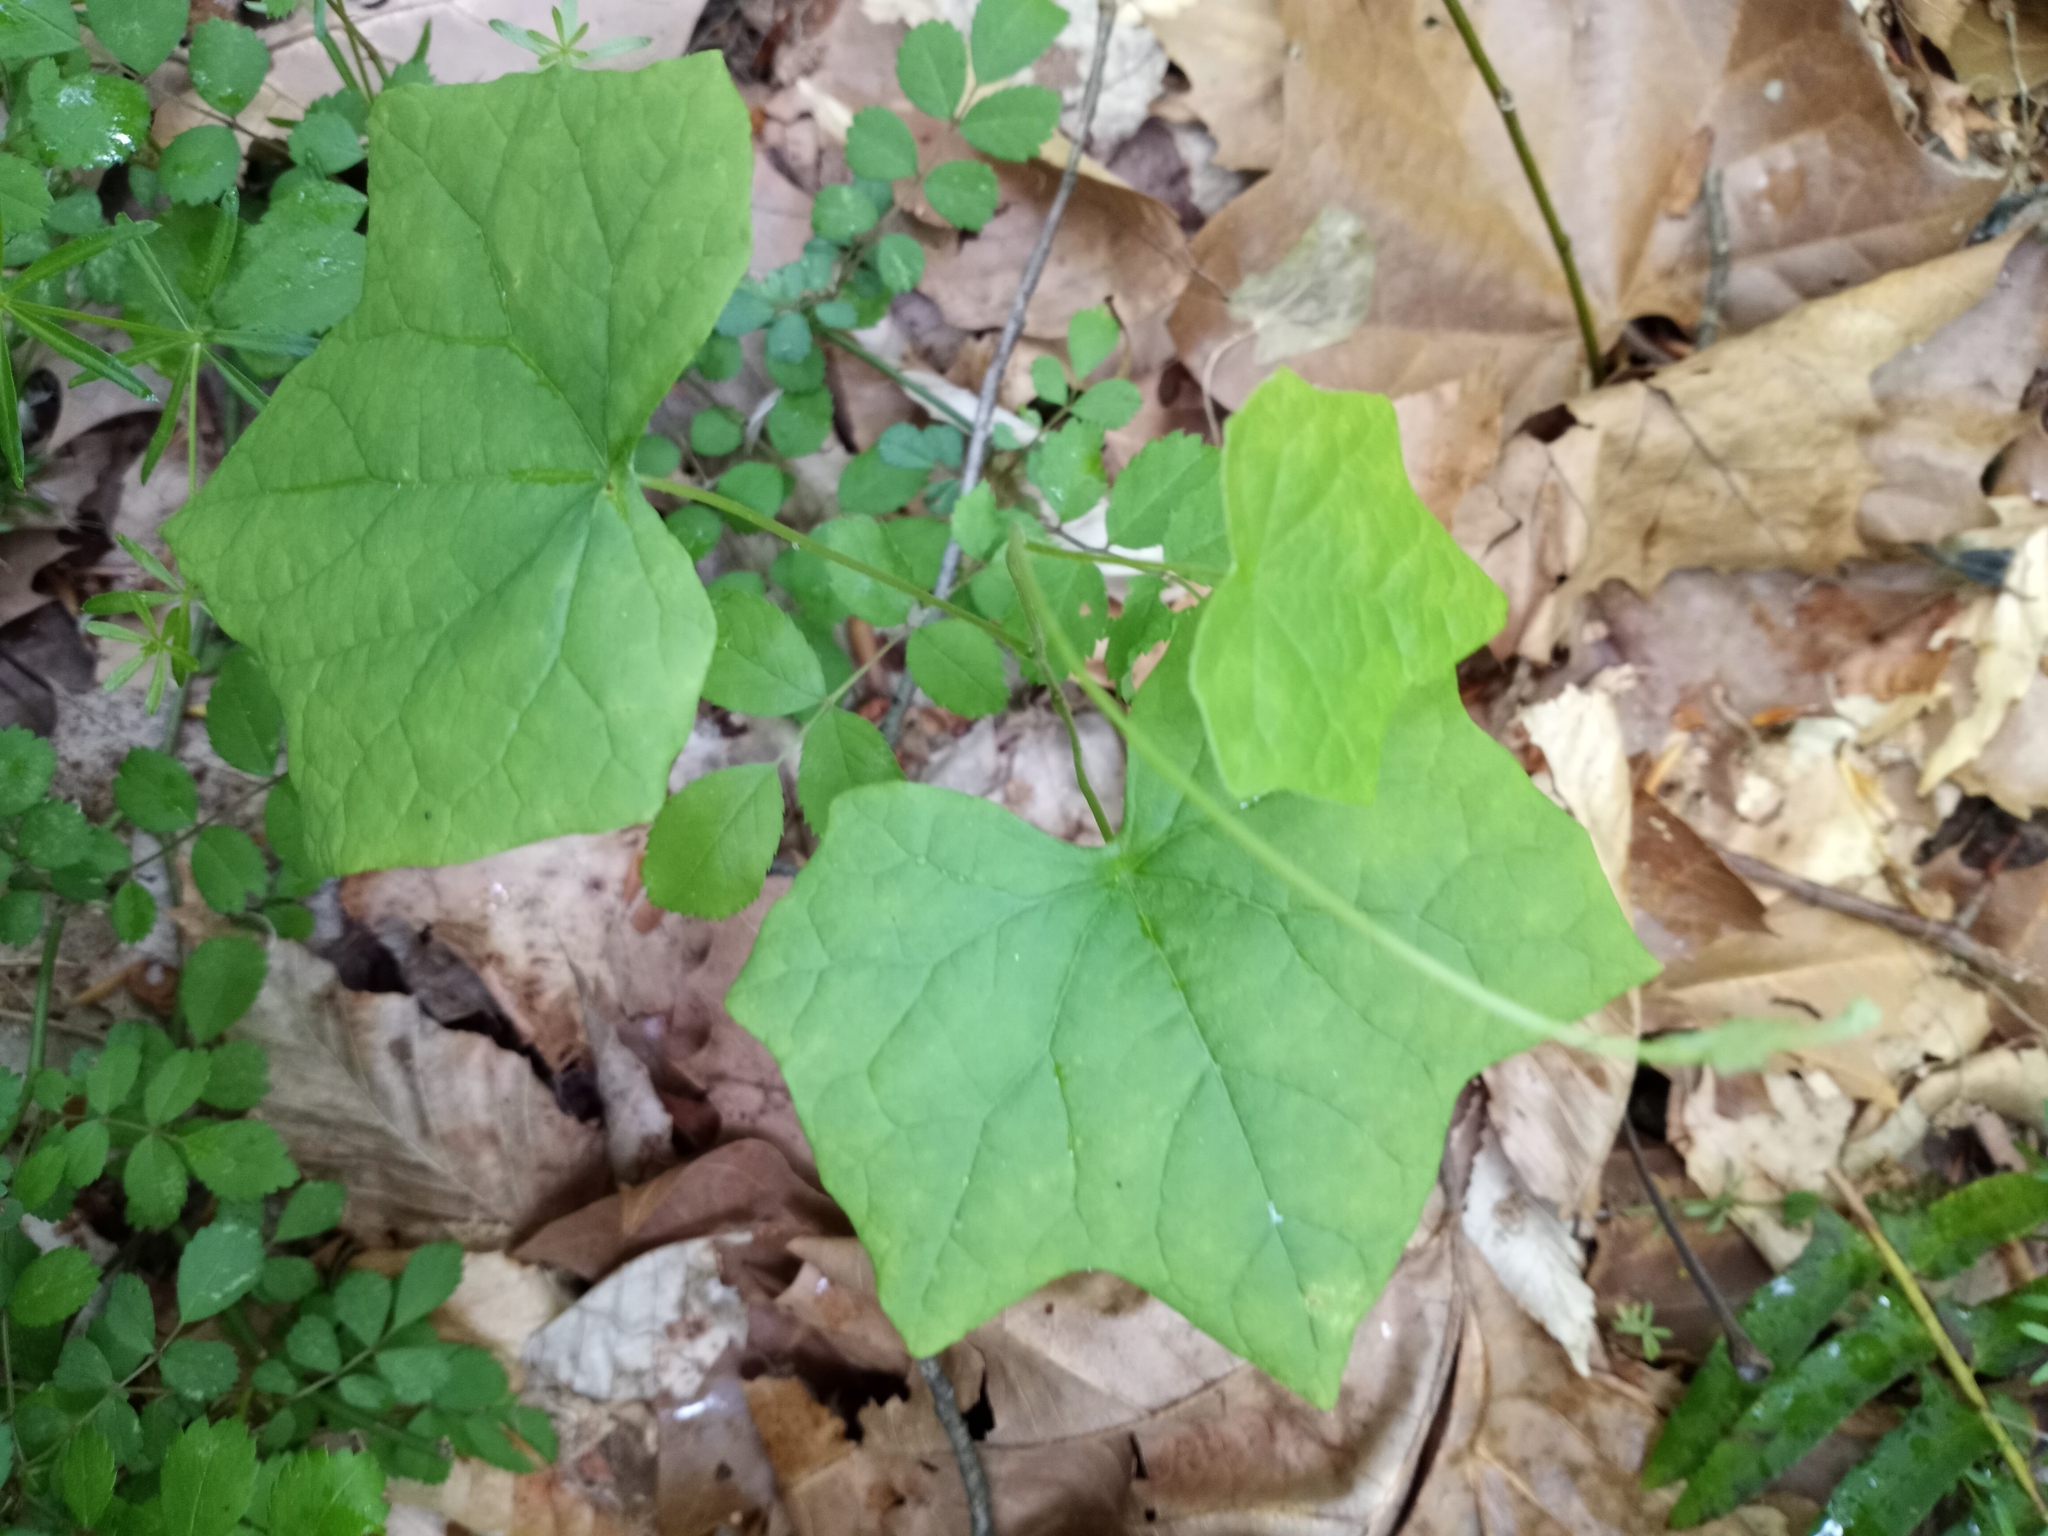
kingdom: Plantae
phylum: Tracheophyta
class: Magnoliopsida
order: Ranunculales
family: Menispermaceae
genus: Menispermum
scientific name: Menispermum canadense
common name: Moonseed
